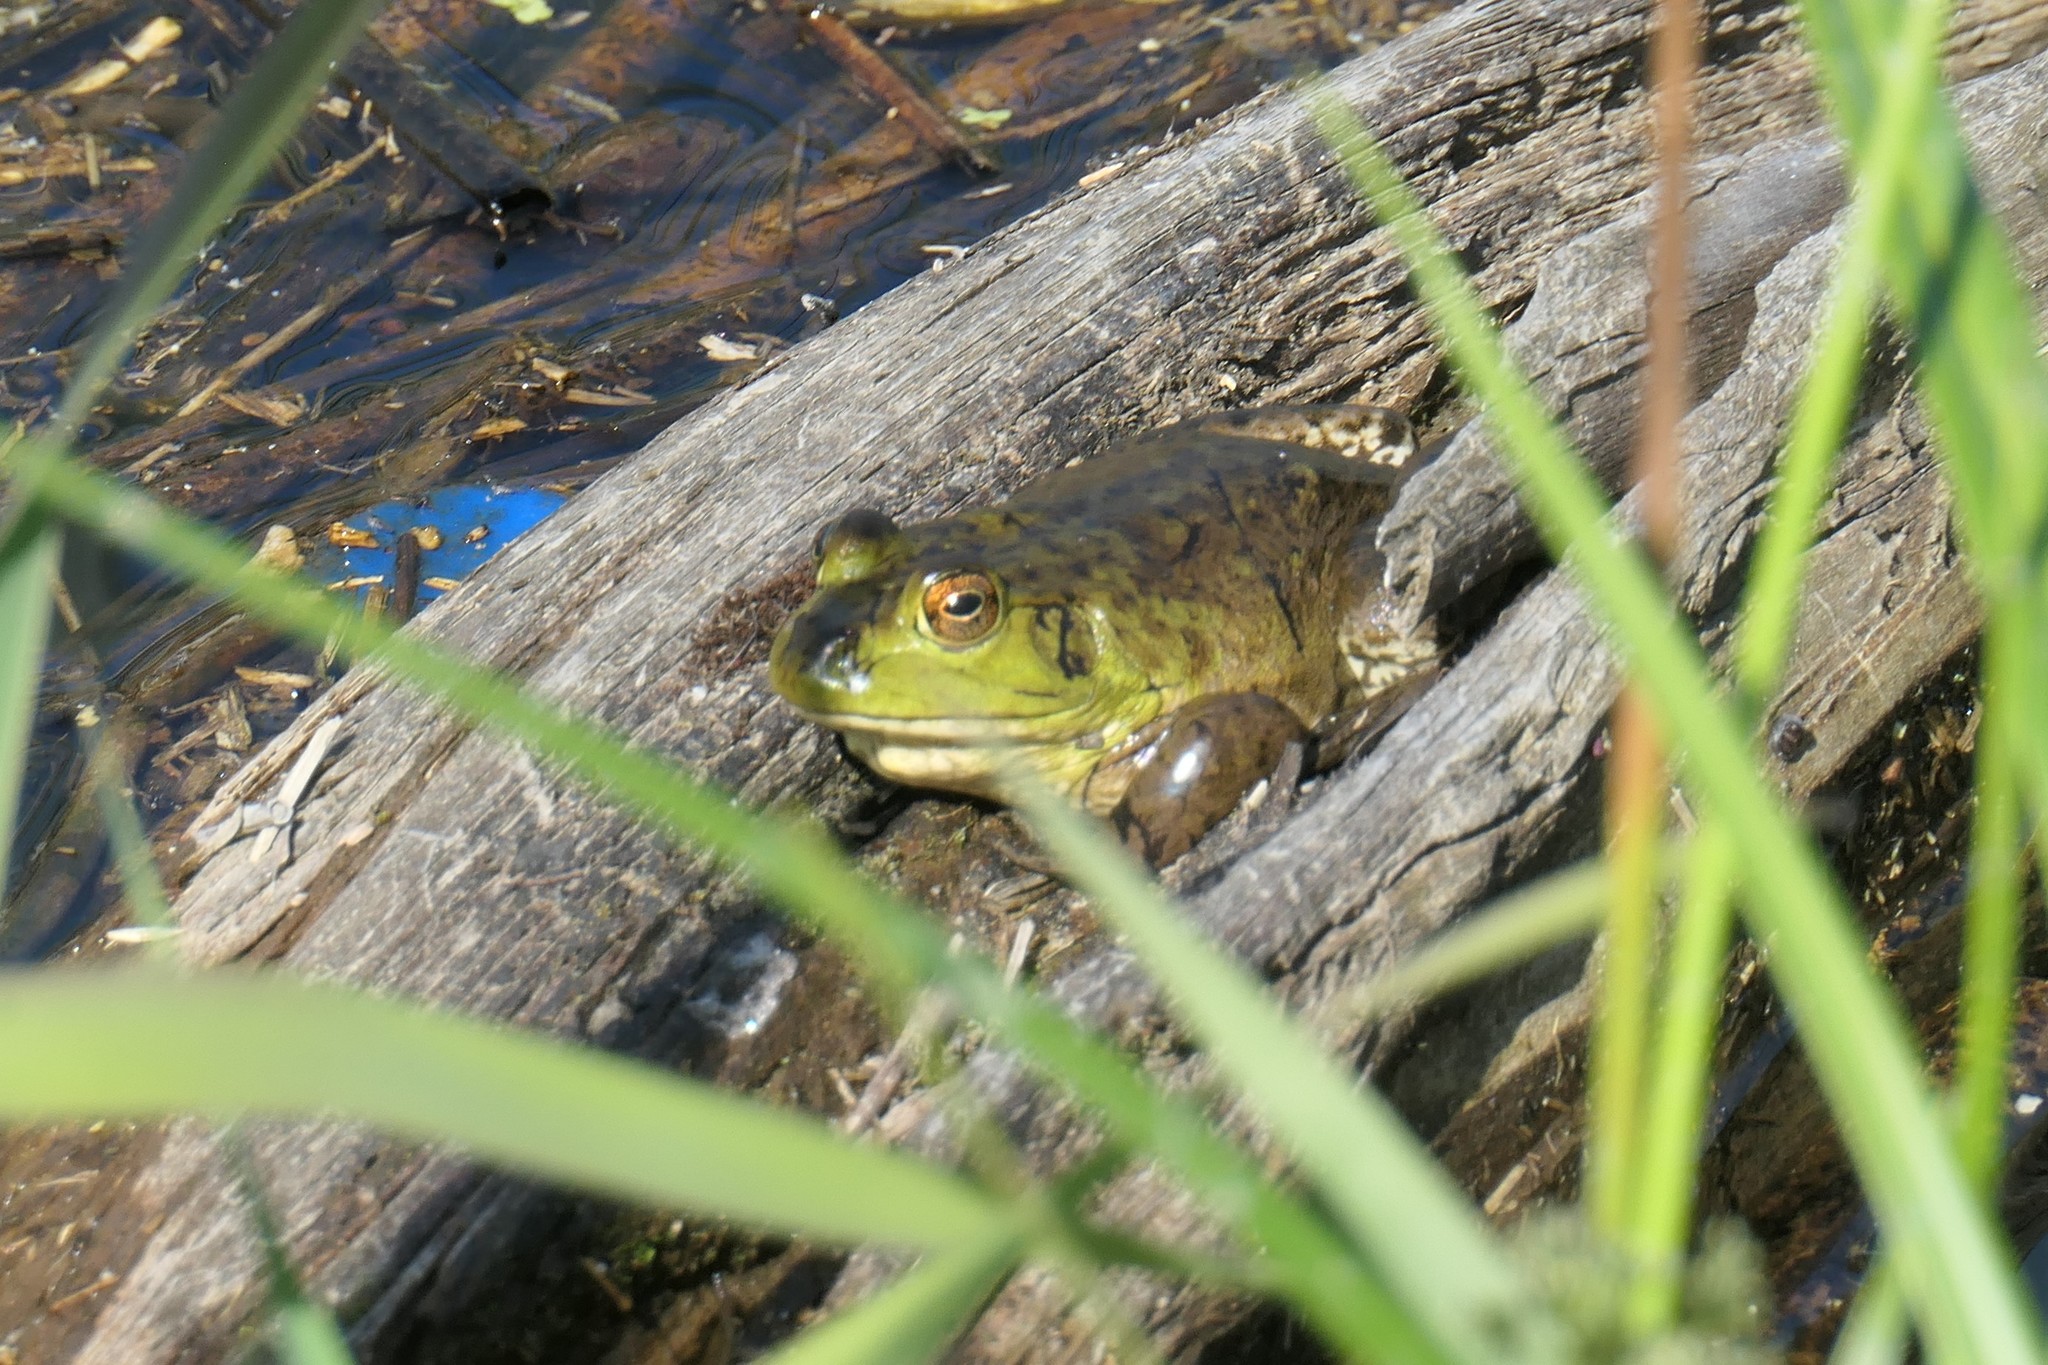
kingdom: Animalia
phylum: Chordata
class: Amphibia
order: Anura
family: Ranidae
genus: Lithobates
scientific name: Lithobates catesbeianus
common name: American bullfrog
